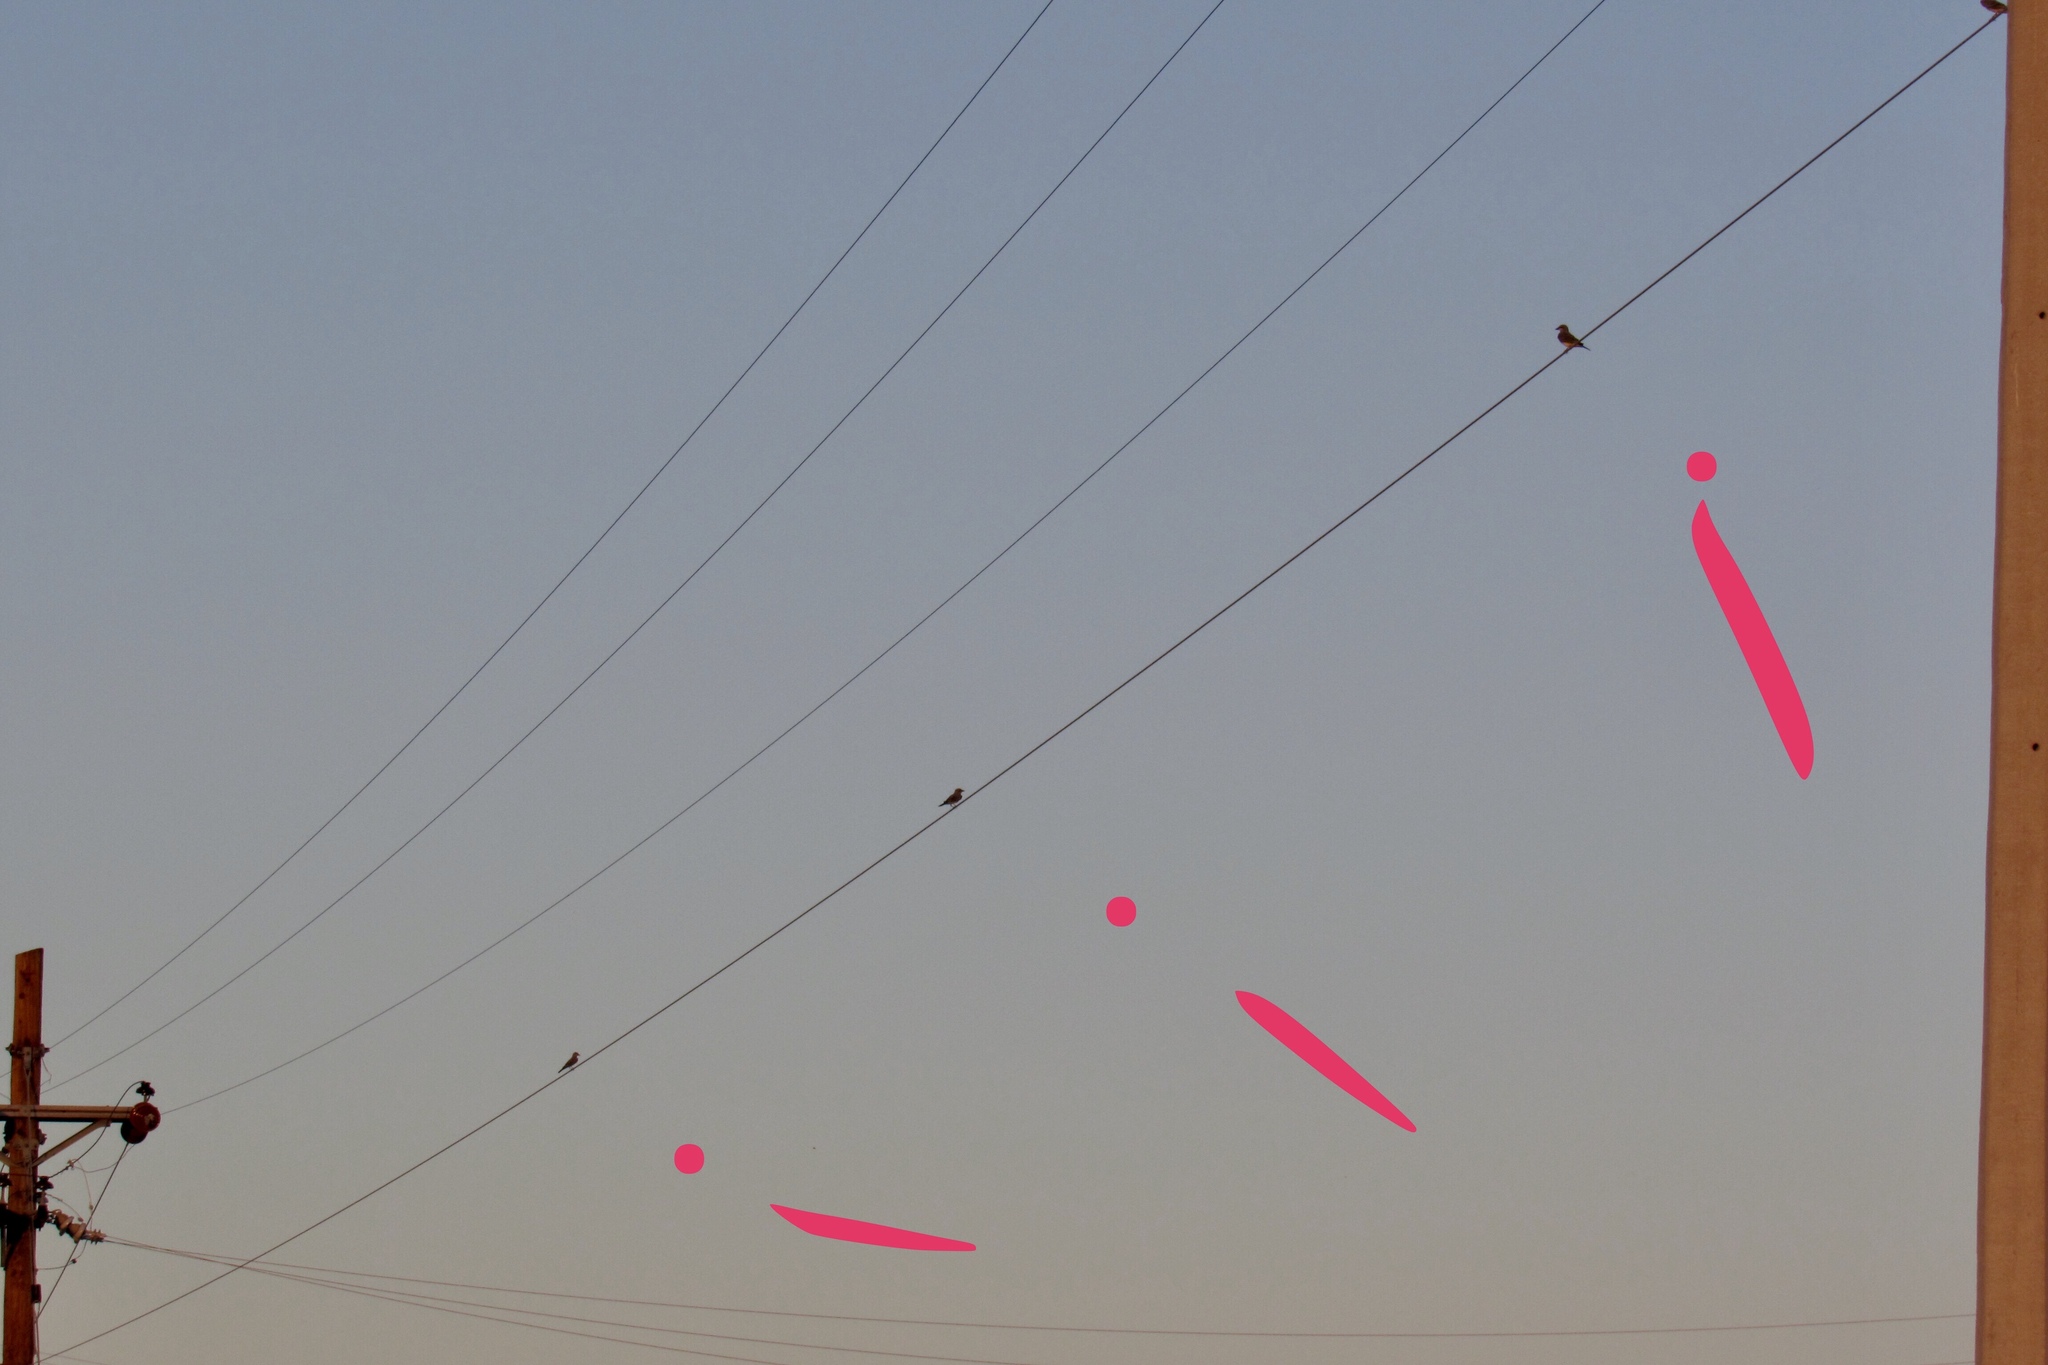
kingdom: Animalia
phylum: Chordata
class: Aves
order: Passeriformes
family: Tyrannidae
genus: Tyrannus
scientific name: Tyrannus verticalis
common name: Western kingbird
